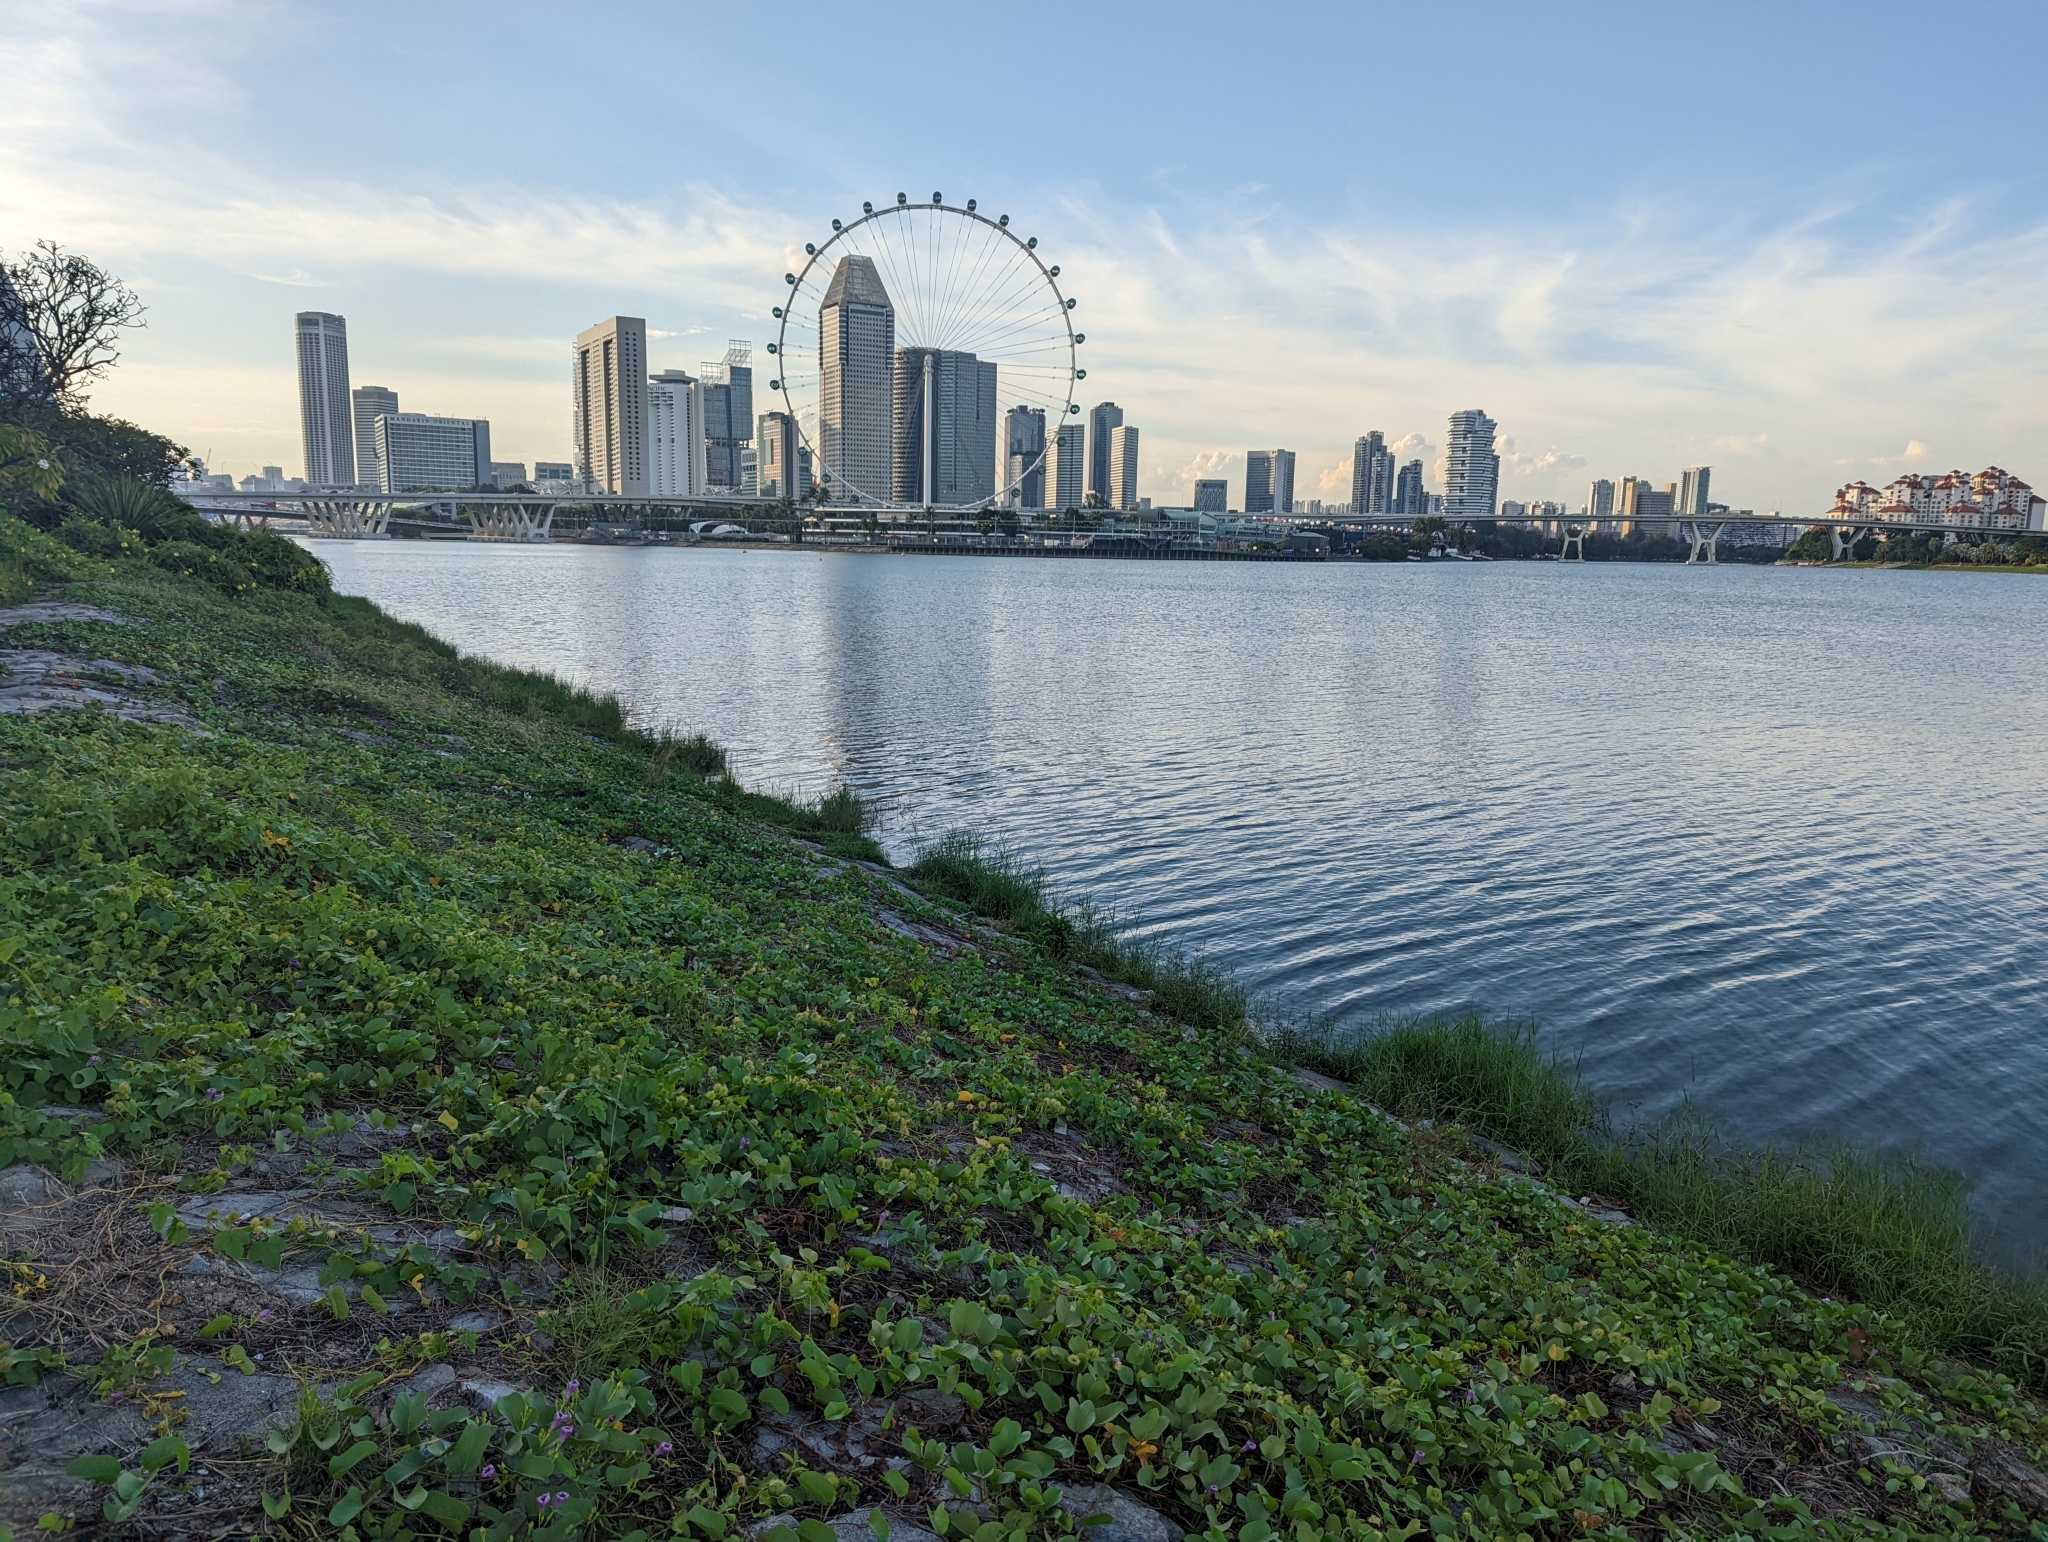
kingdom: Plantae
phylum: Tracheophyta
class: Magnoliopsida
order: Solanales
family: Convolvulaceae
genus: Ipomoea
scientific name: Ipomoea pes-caprae
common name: Beach morning glory
